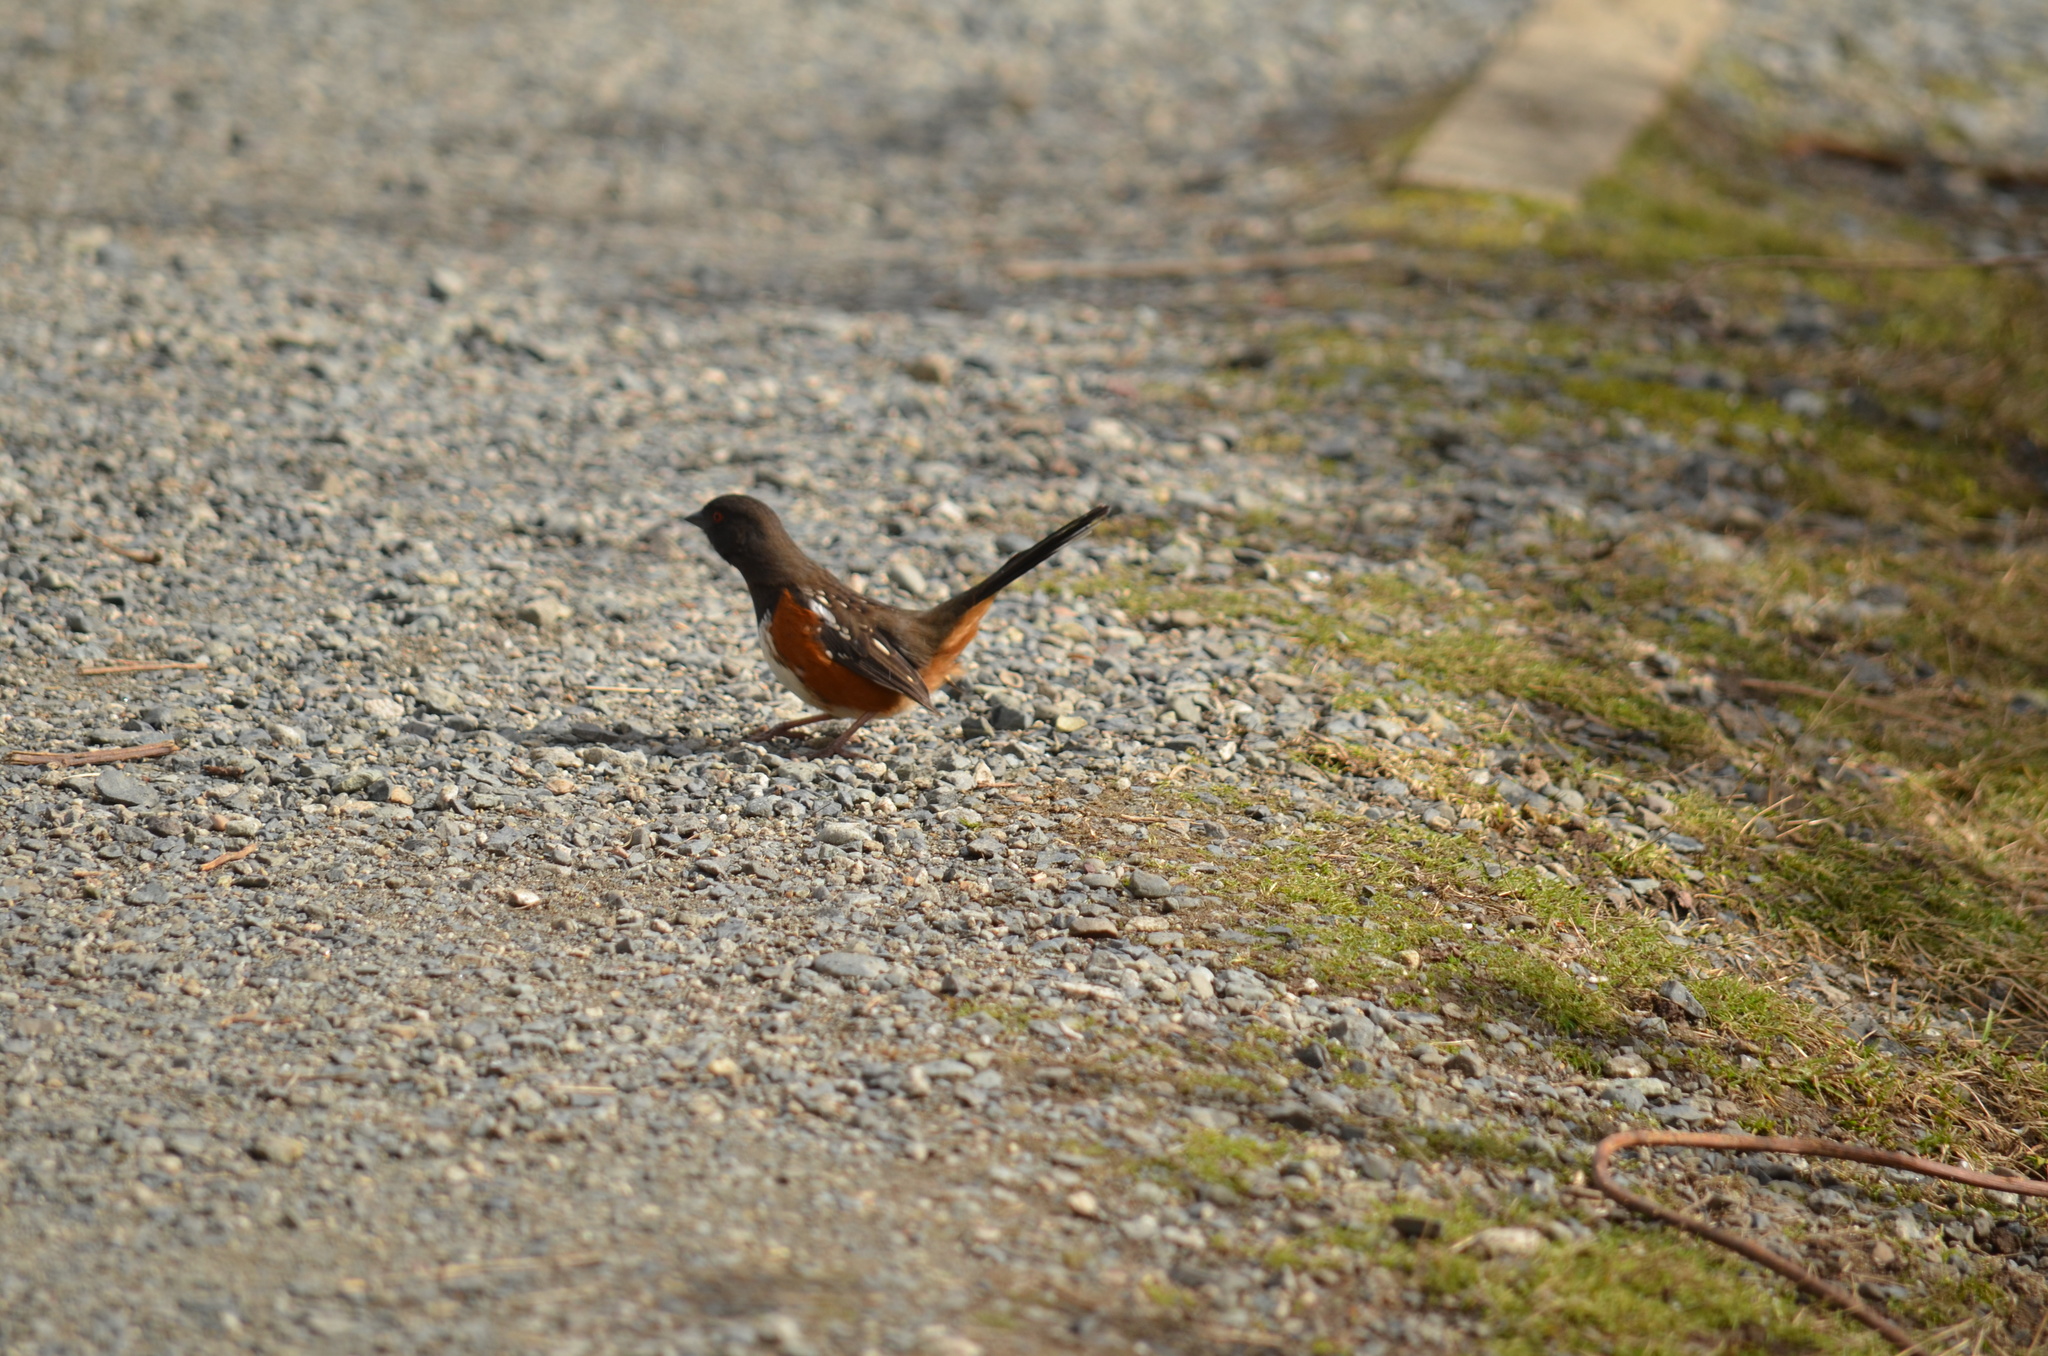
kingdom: Animalia
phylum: Chordata
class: Aves
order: Passeriformes
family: Passerellidae
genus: Pipilo
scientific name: Pipilo maculatus
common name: Spotted towhee
